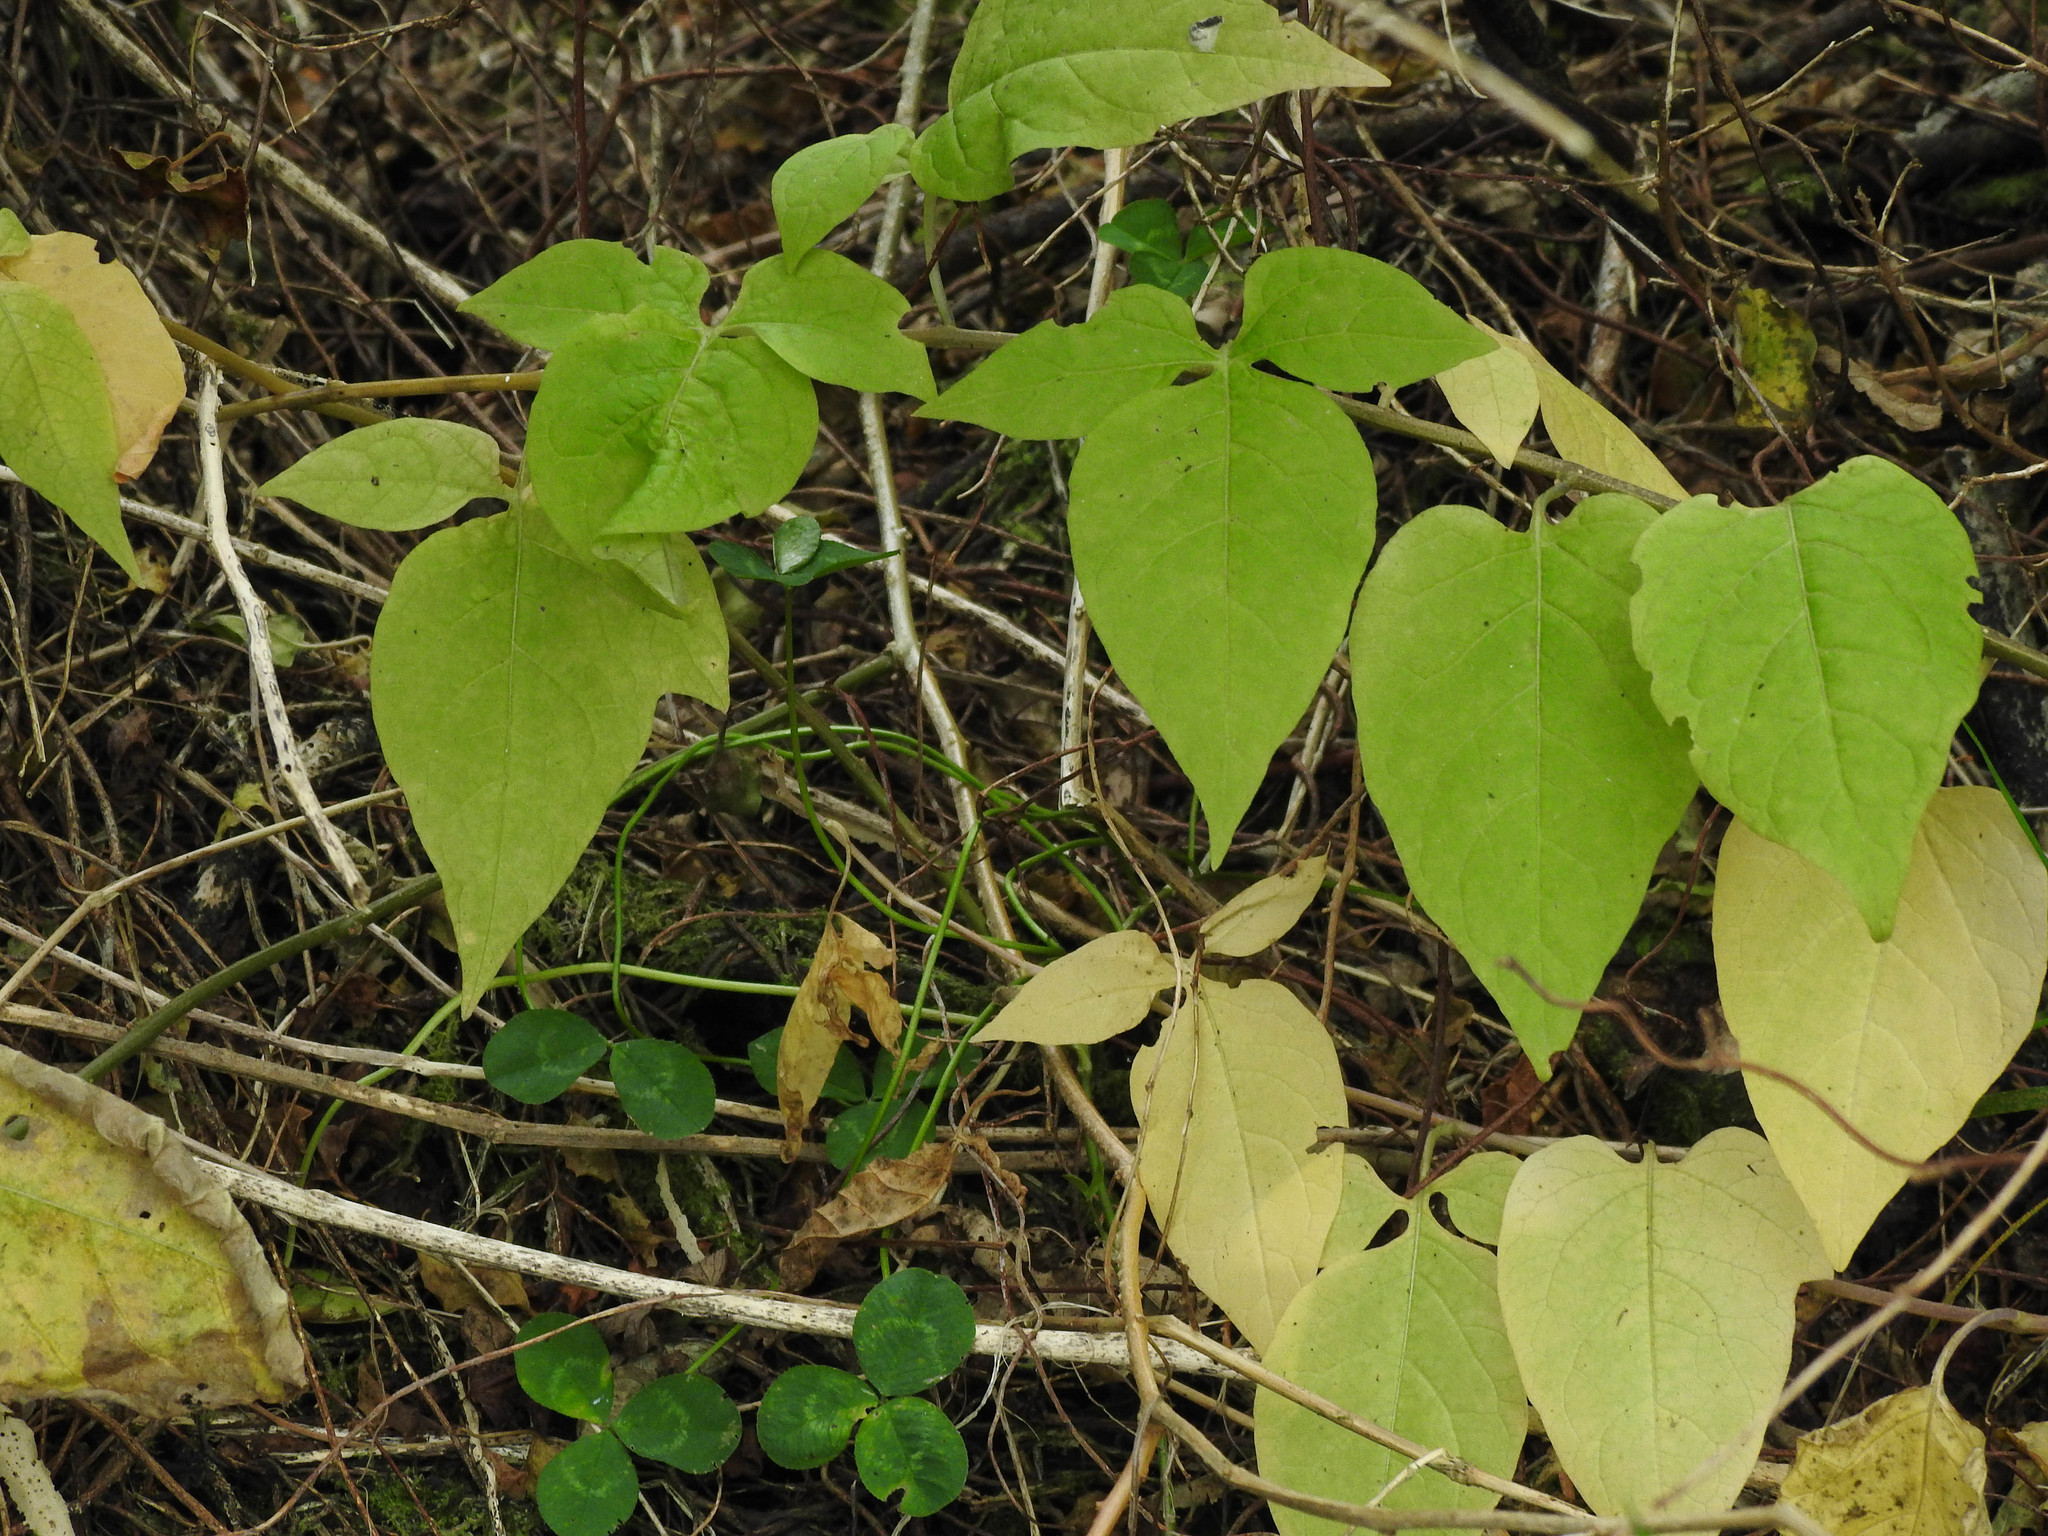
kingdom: Plantae
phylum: Tracheophyta
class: Magnoliopsida
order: Solanales
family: Solanaceae
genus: Solanum
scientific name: Solanum dulcamara
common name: Climbing nightshade
